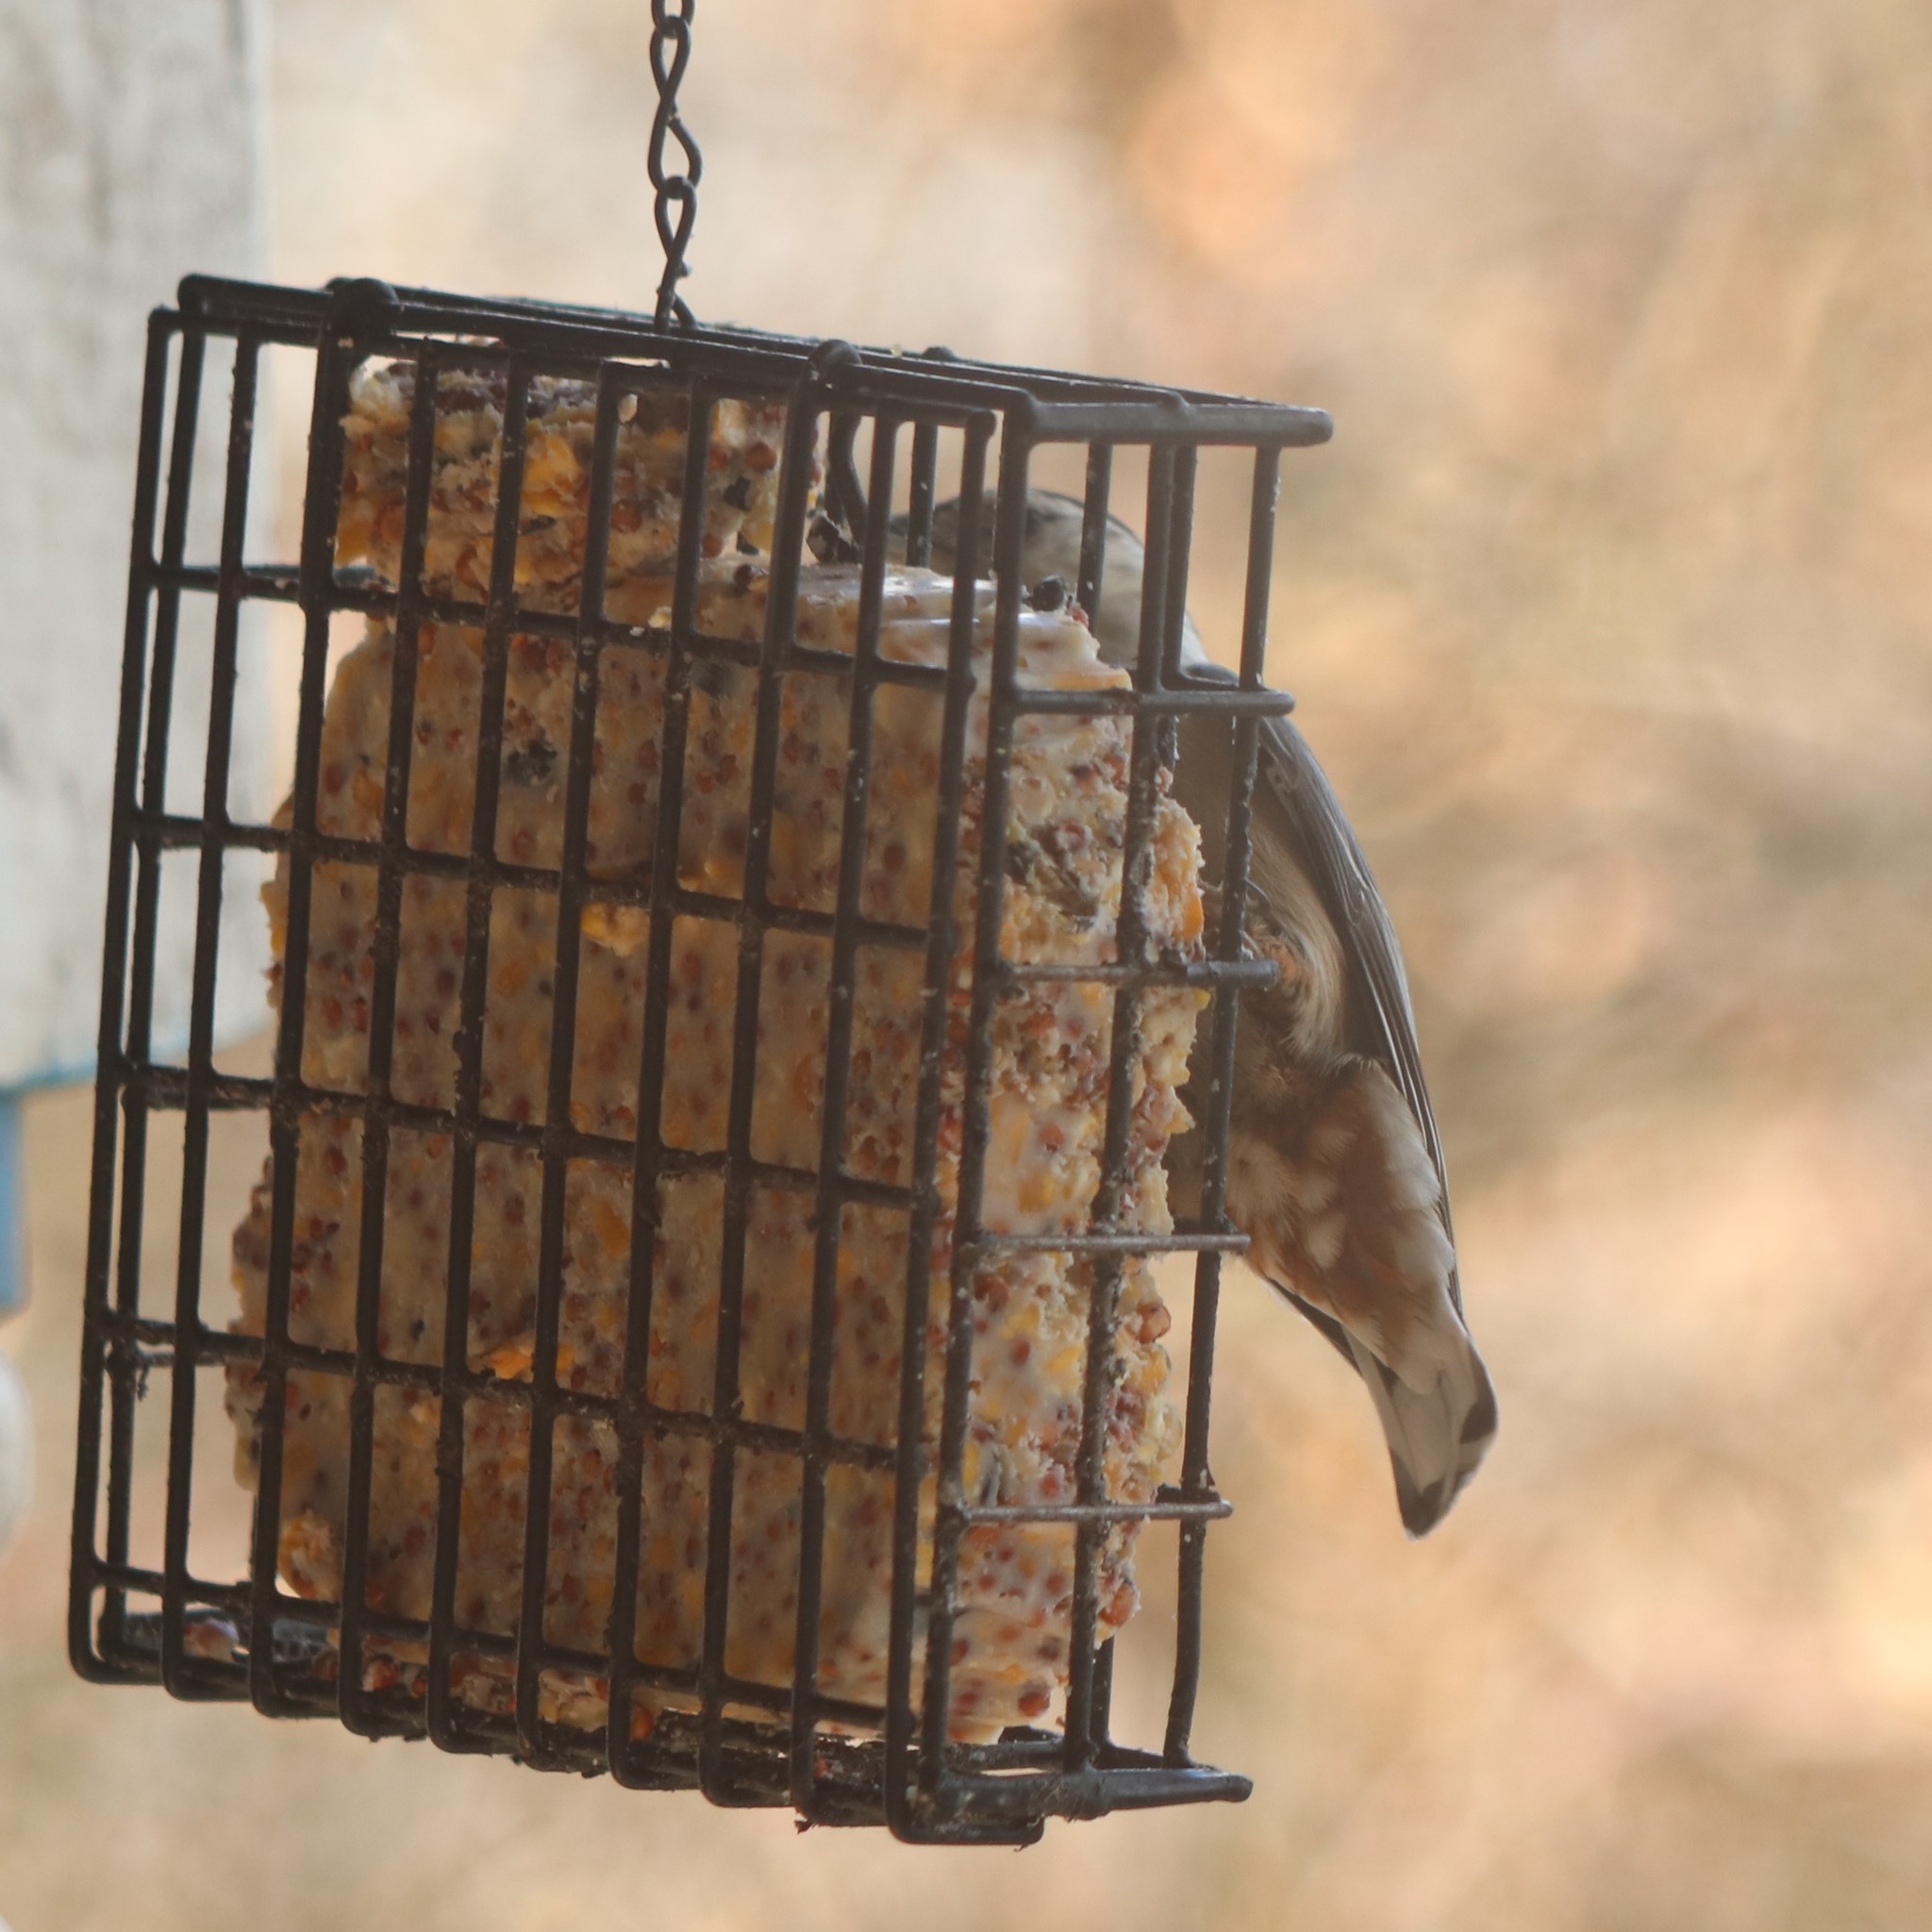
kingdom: Animalia
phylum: Chordata
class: Aves
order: Passeriformes
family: Sittidae
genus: Sitta
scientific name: Sitta carolinensis
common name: White-breasted nuthatch
